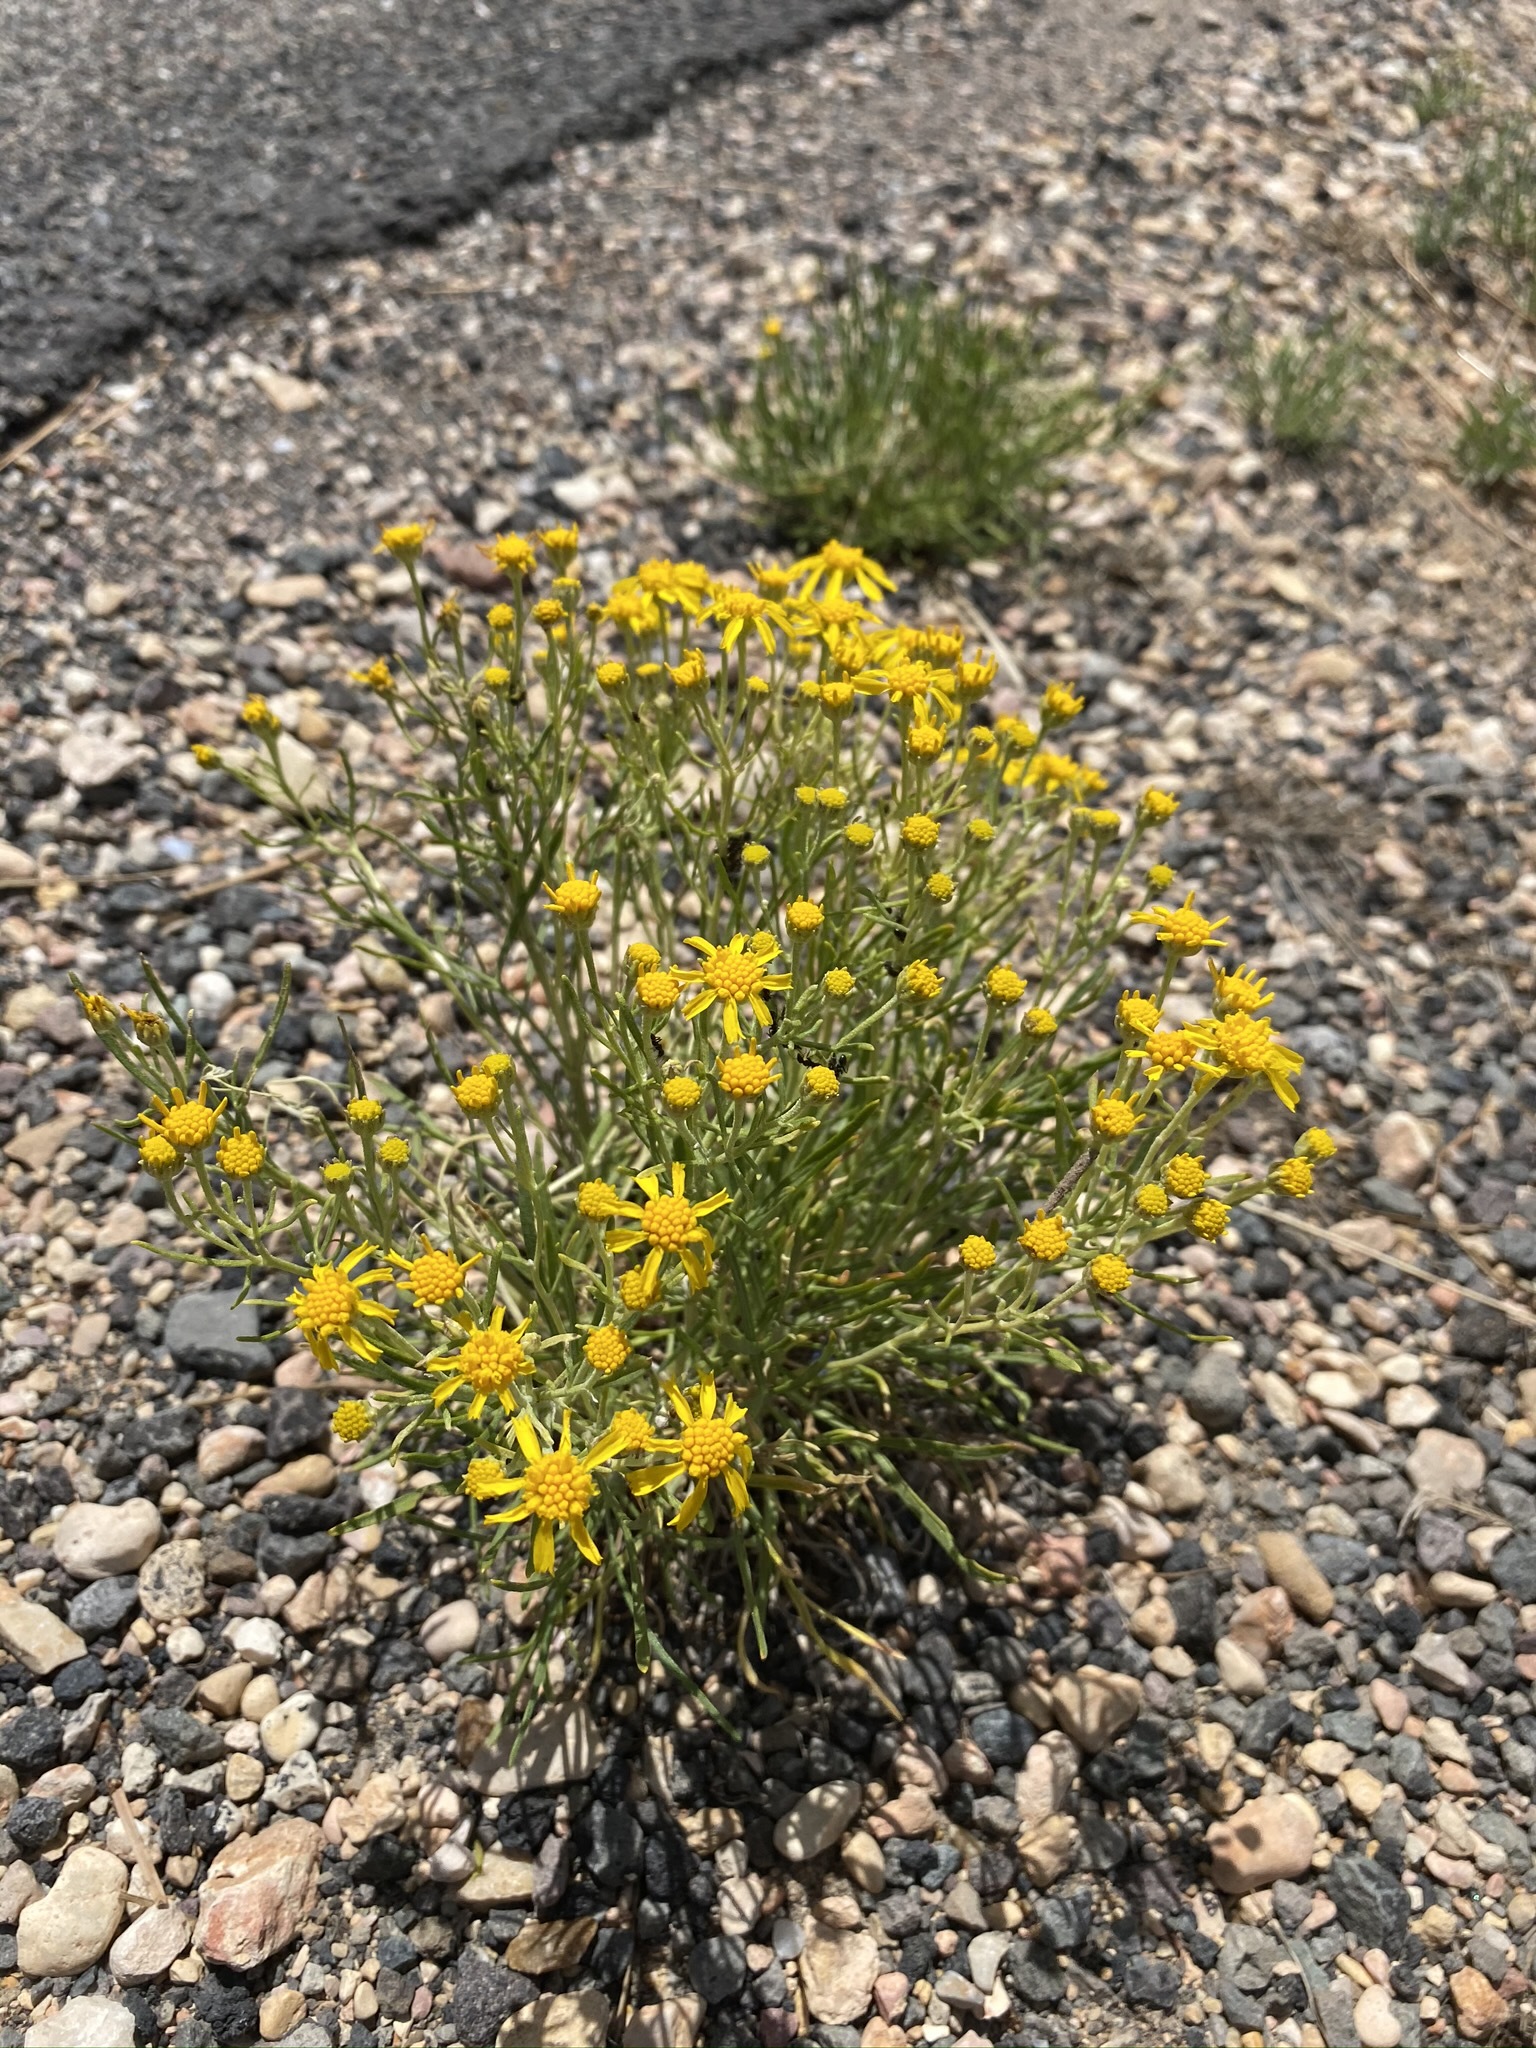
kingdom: Plantae
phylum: Tracheophyta
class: Magnoliopsida
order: Asterales
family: Asteraceae
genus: Hymenoxys
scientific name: Hymenoxys richardsonii
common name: Pingue rubberweed
